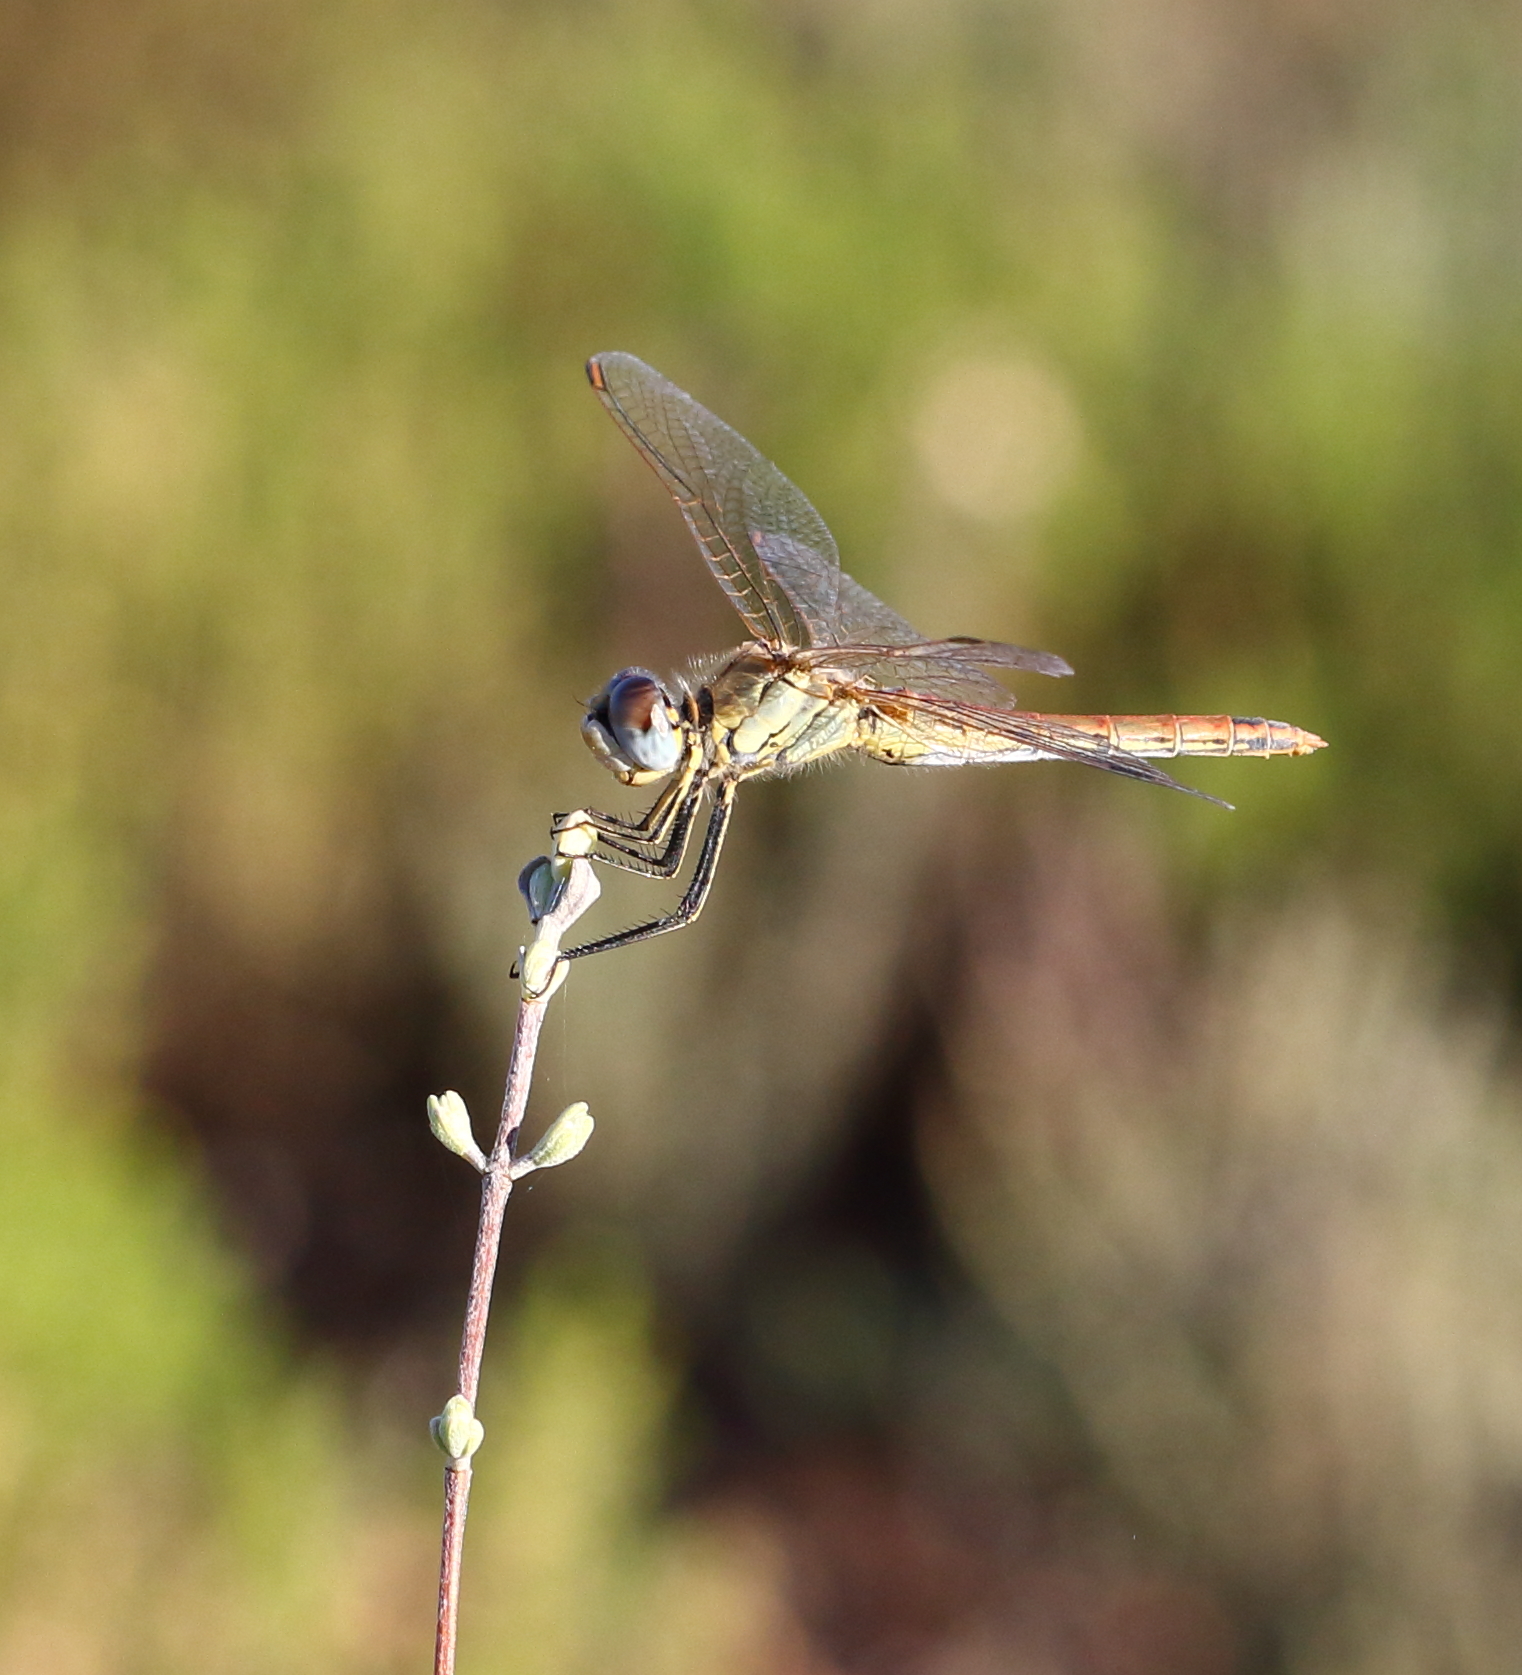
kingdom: Animalia
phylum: Arthropoda
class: Insecta
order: Odonata
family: Libellulidae
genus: Sympetrum
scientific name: Sympetrum fonscolombii
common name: Red-veined darter
